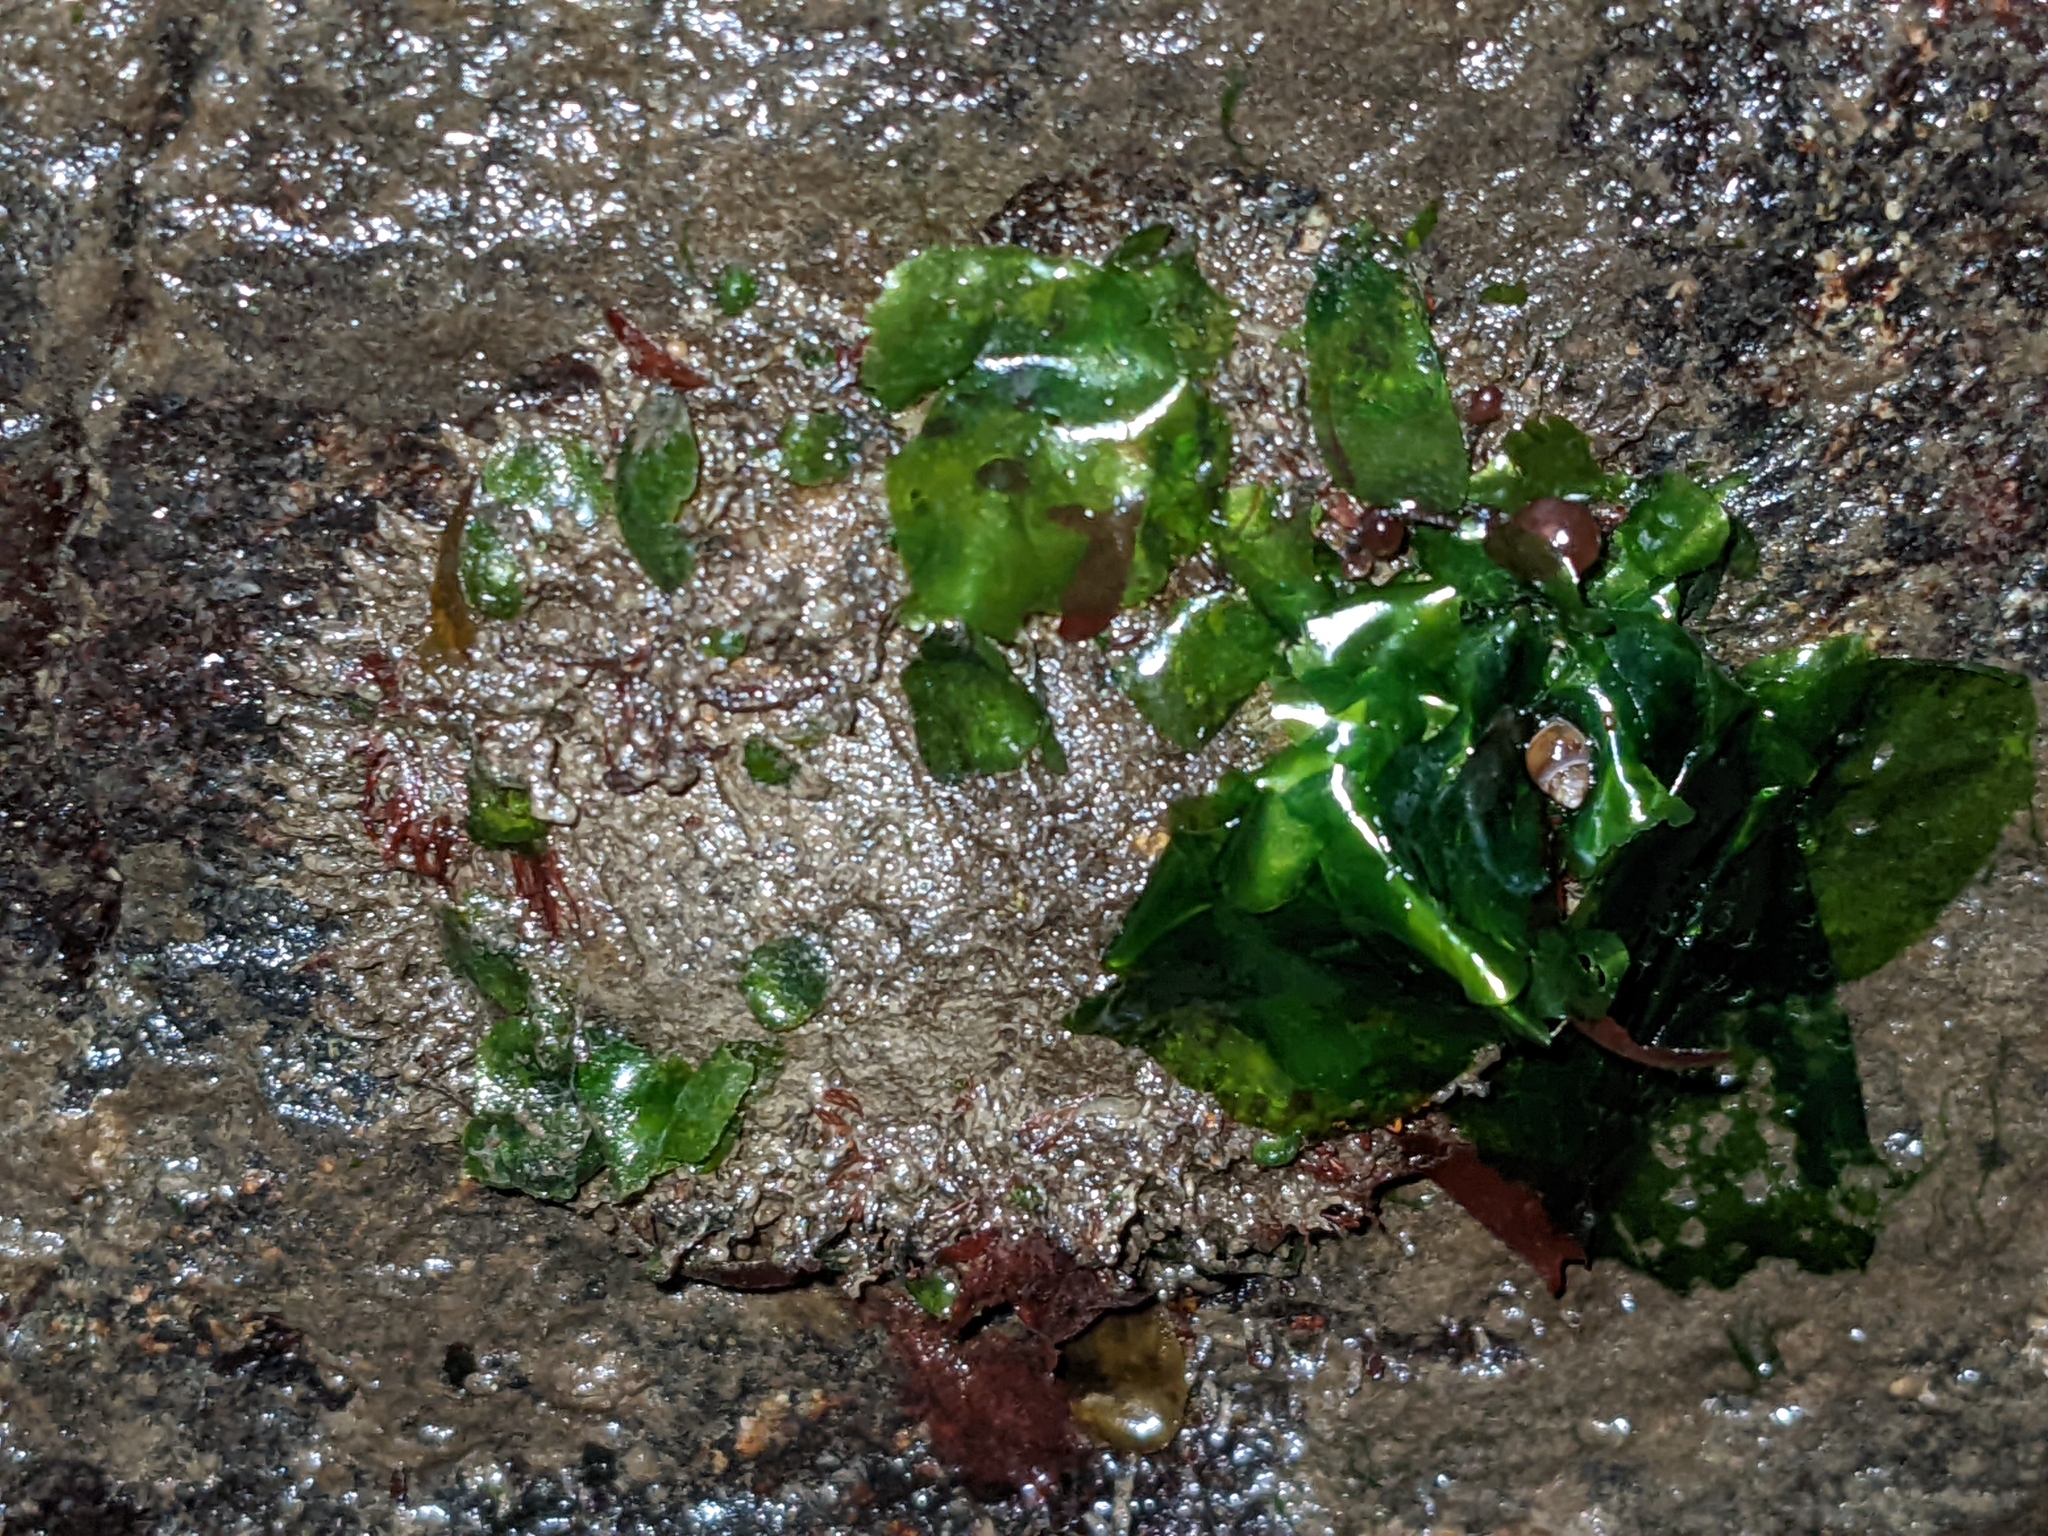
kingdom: Animalia
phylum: Mollusca
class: Polyplacophora
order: Chitonida
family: Mopaliidae
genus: Mopalia
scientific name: Mopalia muscosa
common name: Mossy chiton
